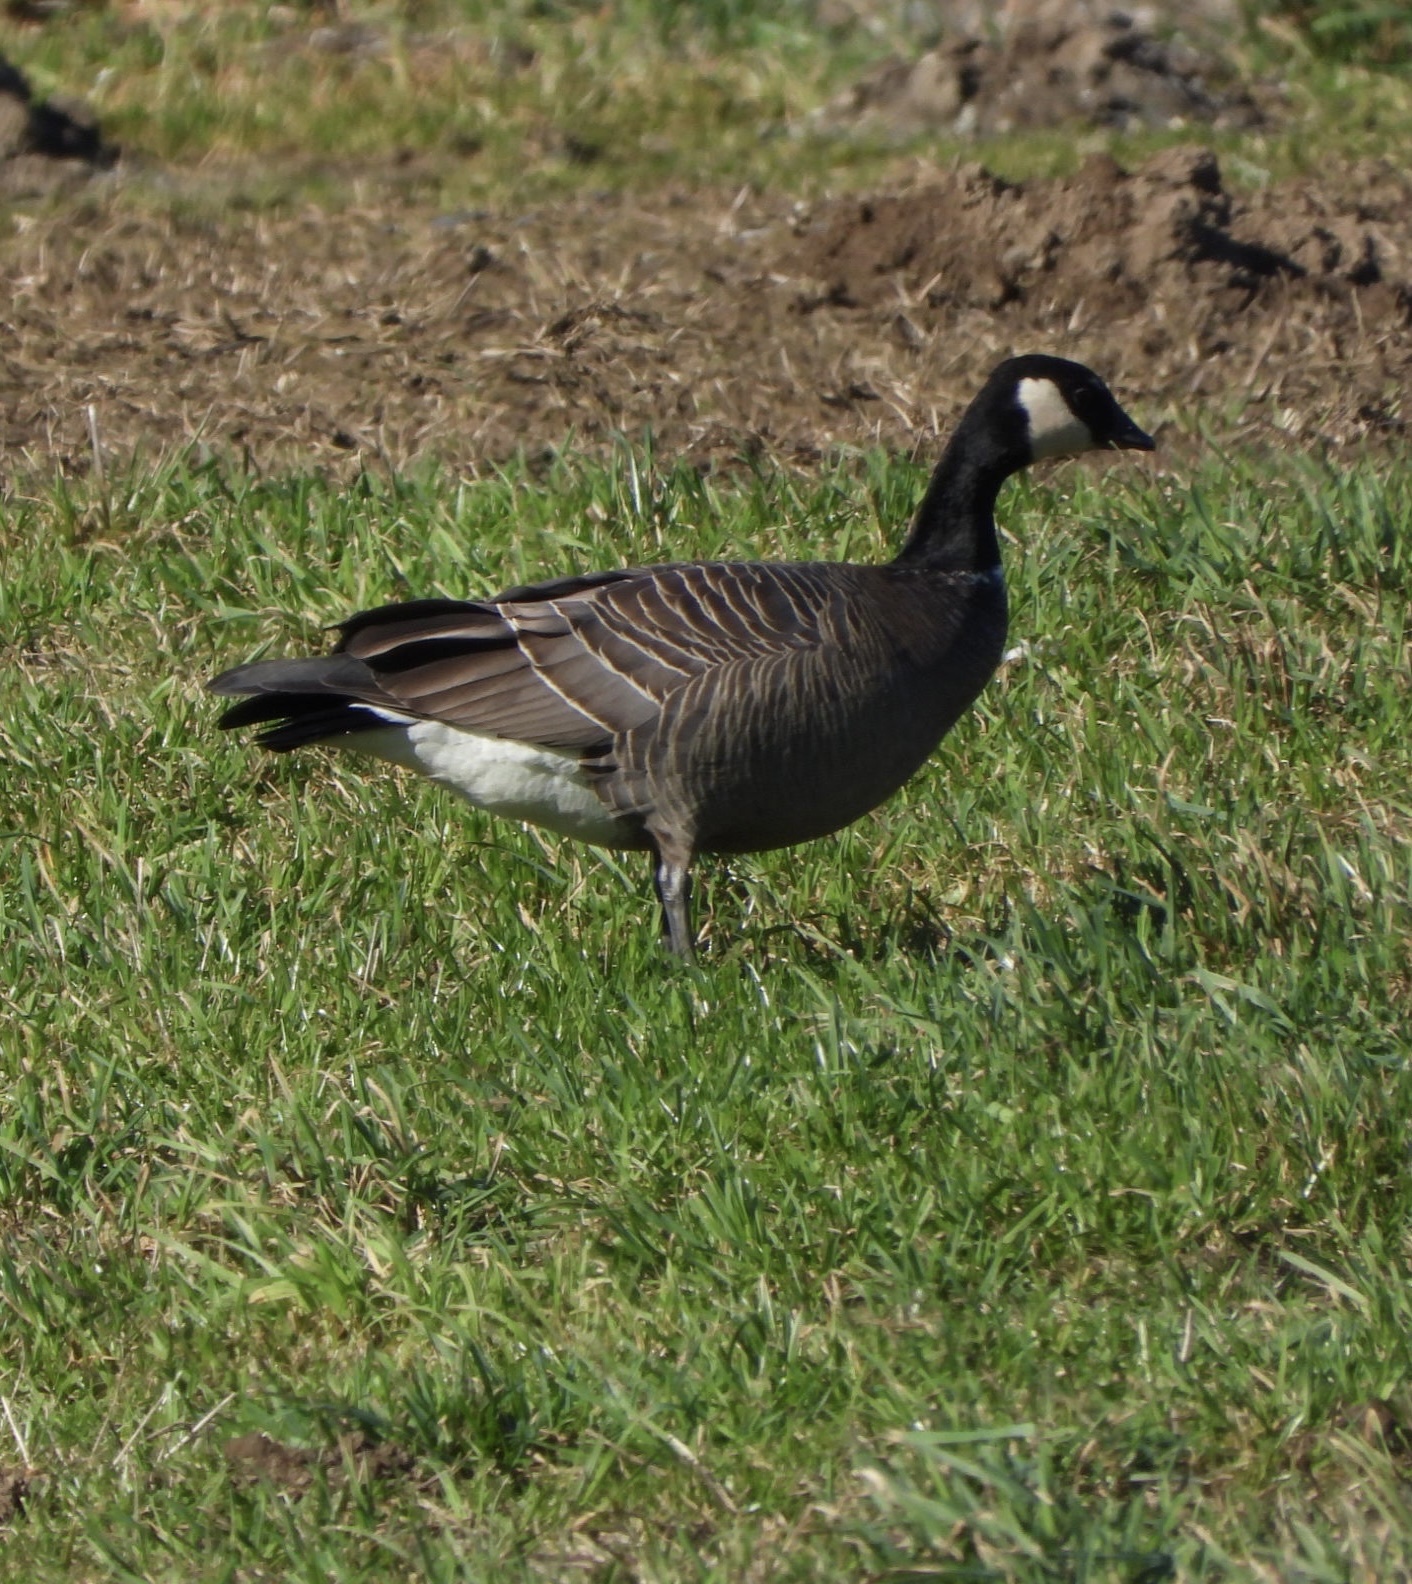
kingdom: Animalia
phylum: Chordata
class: Aves
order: Anseriformes
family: Anatidae
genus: Branta
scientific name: Branta hutchinsii
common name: Cackling goose
